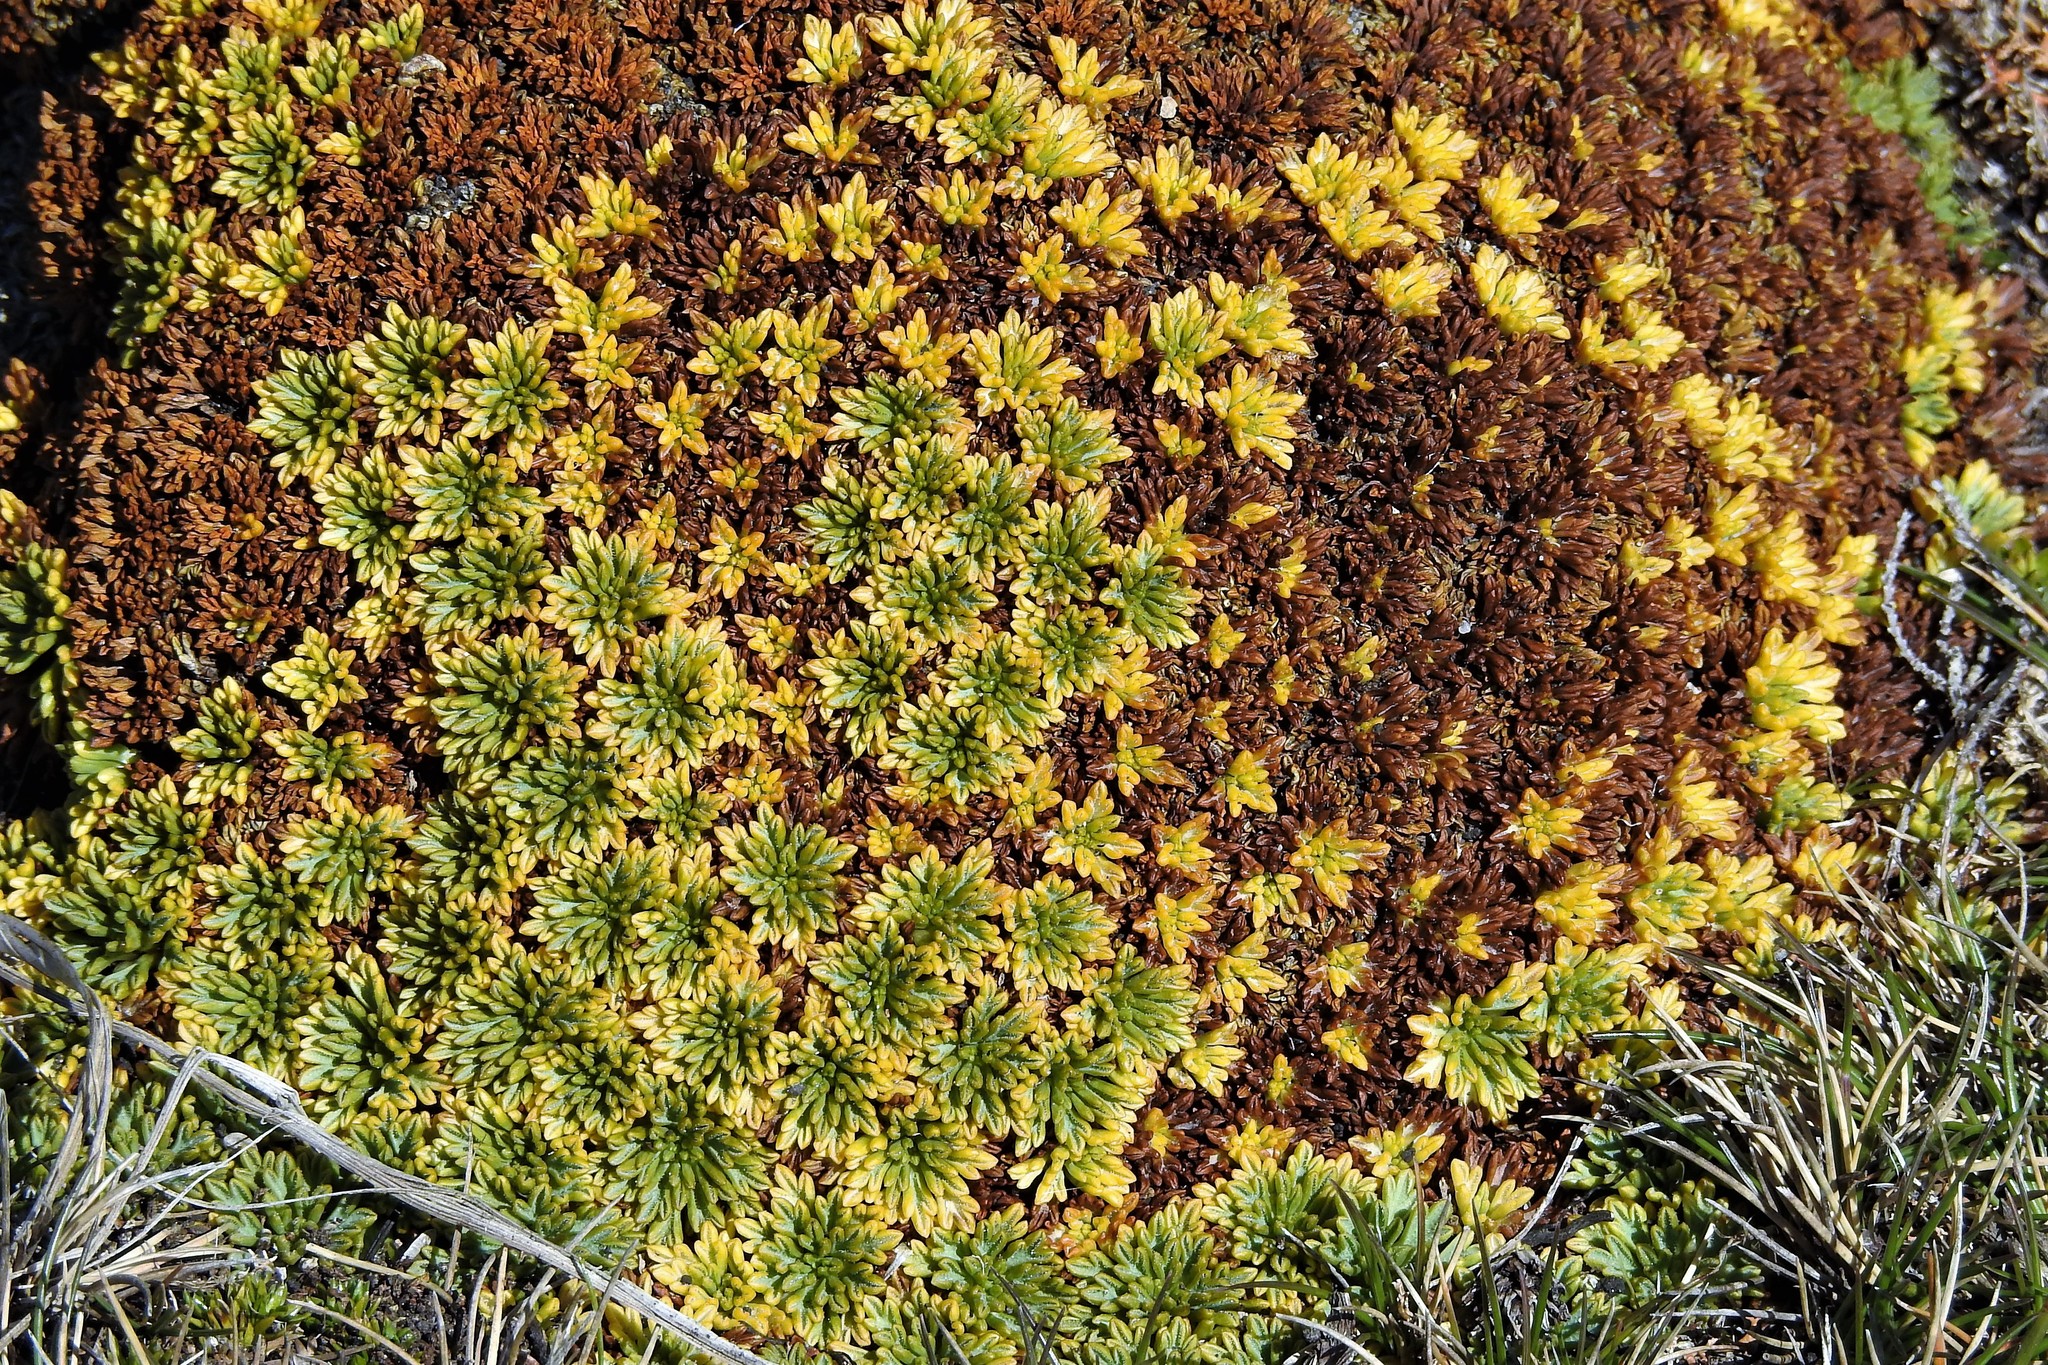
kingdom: Plantae
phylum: Tracheophyta
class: Magnoliopsida
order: Apiales
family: Apiaceae
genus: Bolax
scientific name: Bolax gummifera
